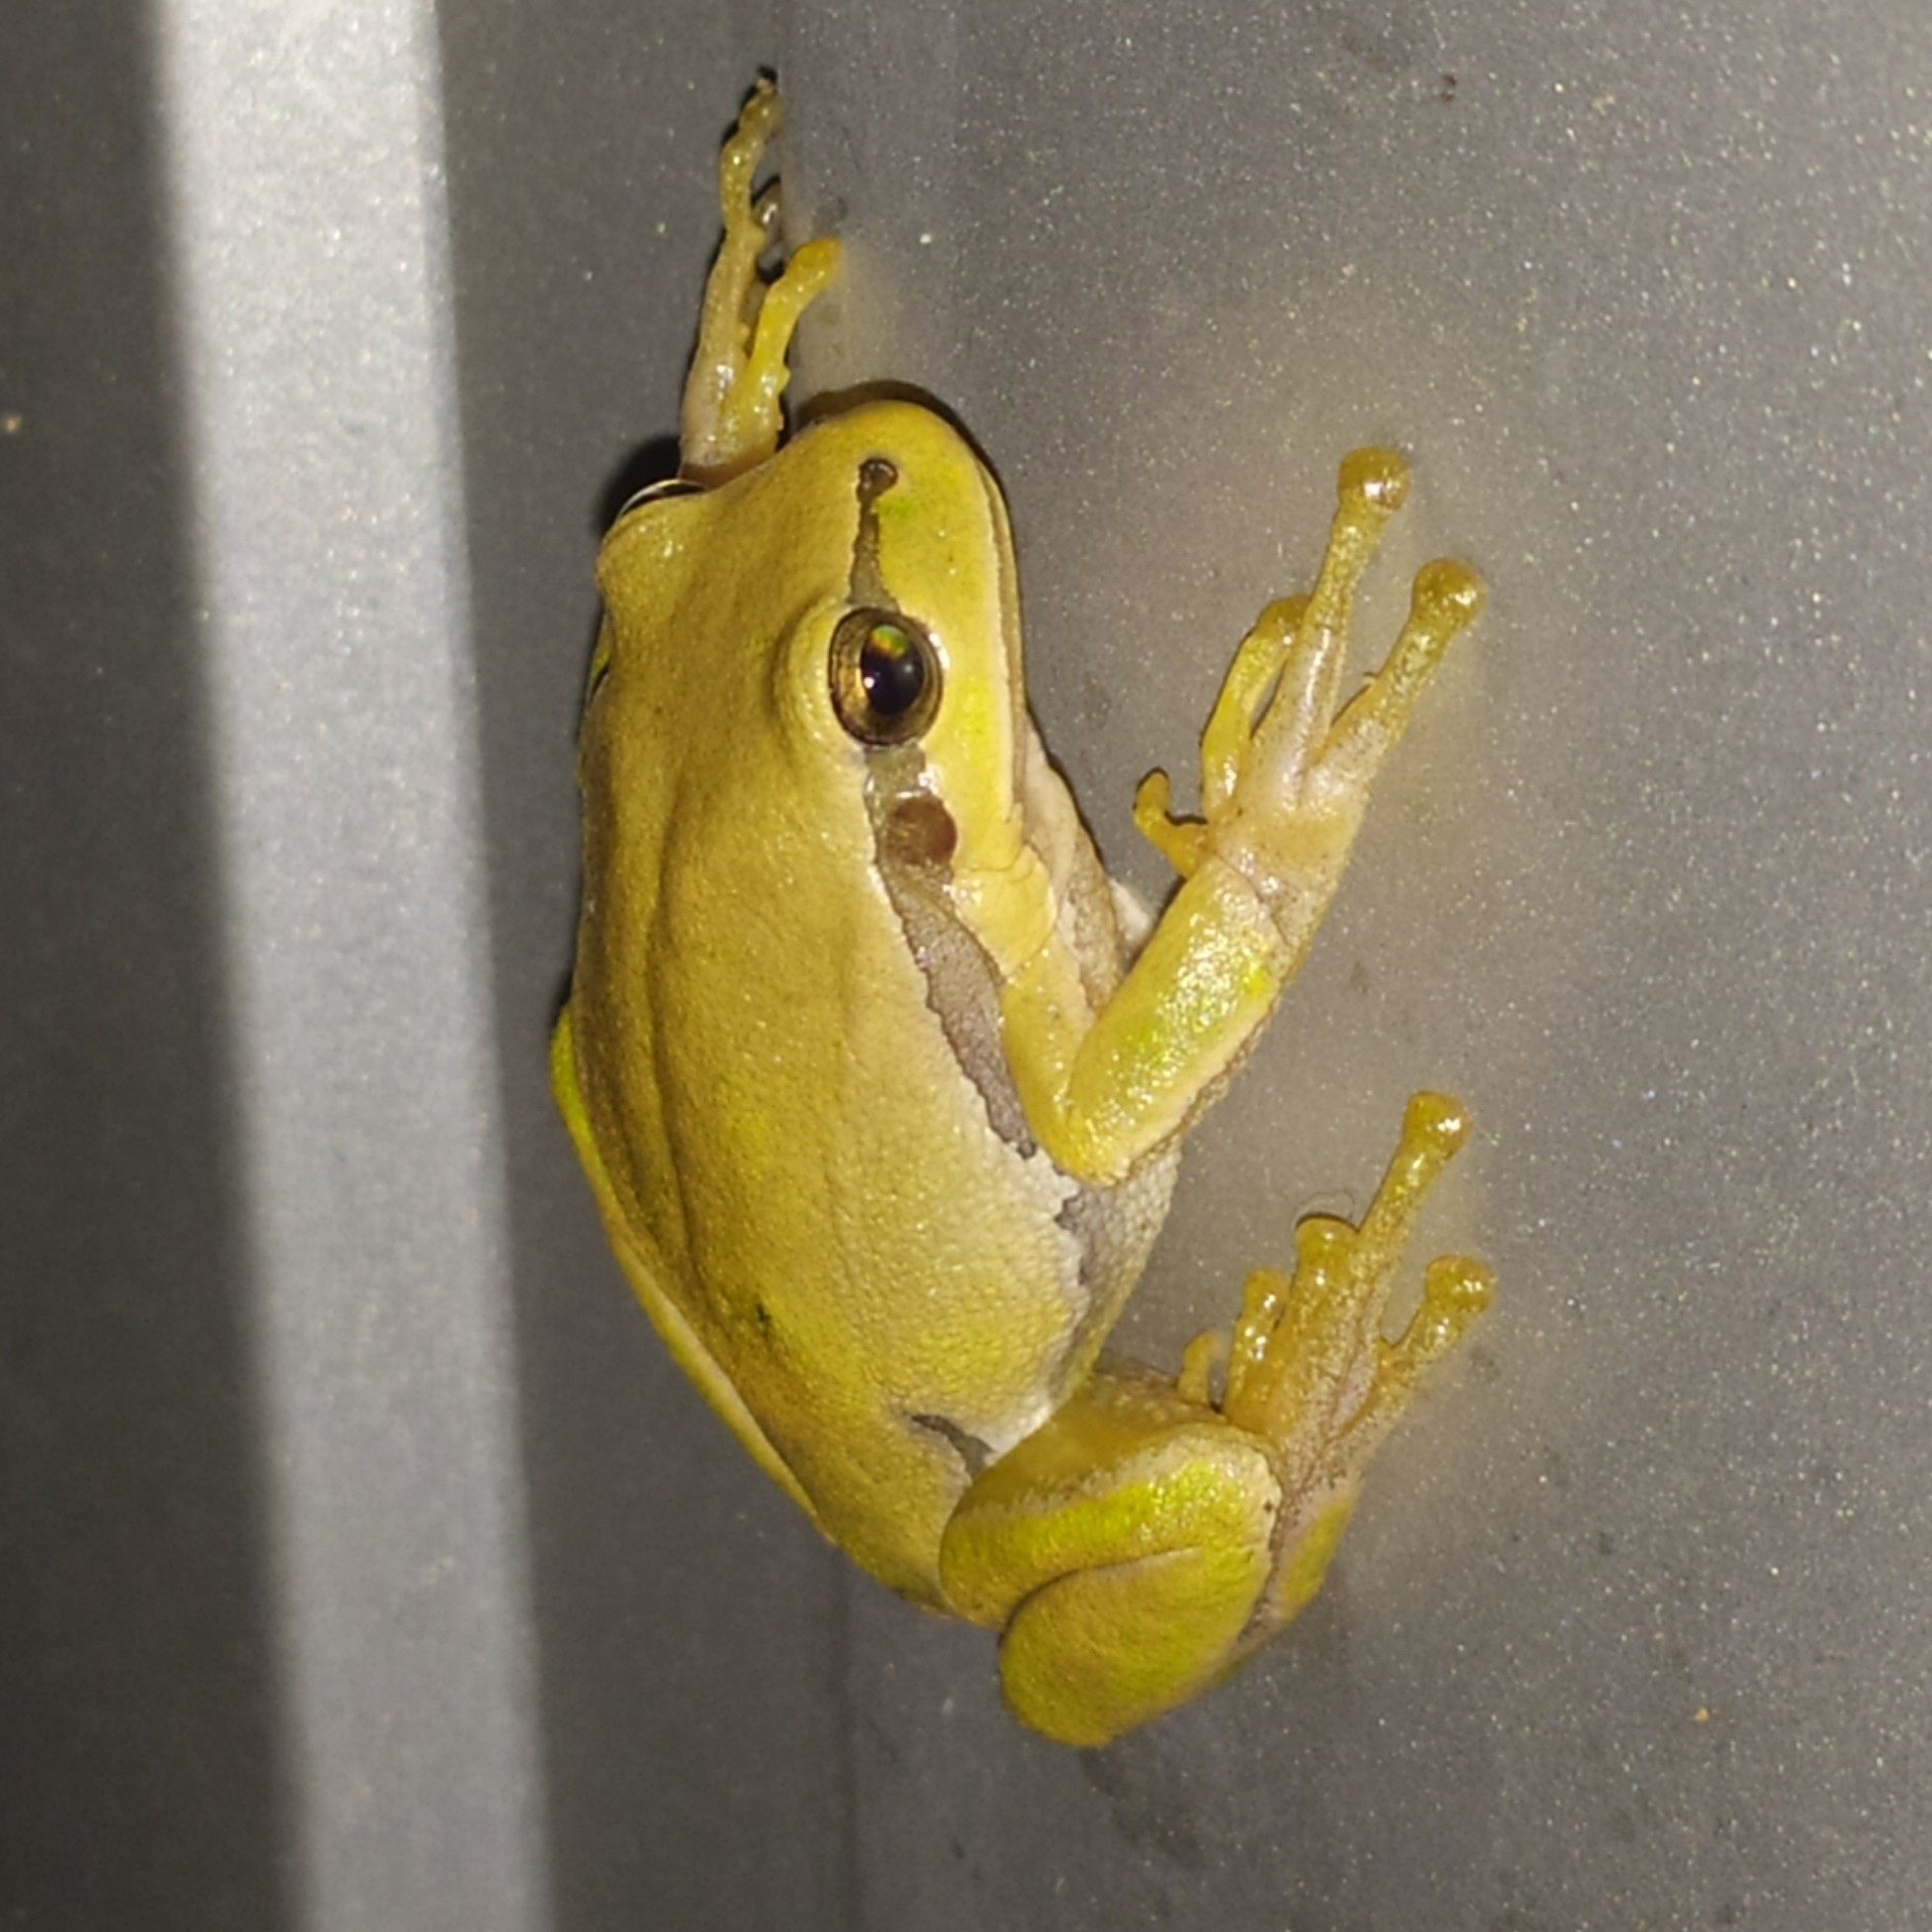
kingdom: Animalia
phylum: Chordata
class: Amphibia
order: Anura
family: Hylidae
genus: Hyla
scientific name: Hyla orientalis
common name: Caucasian treefrog
